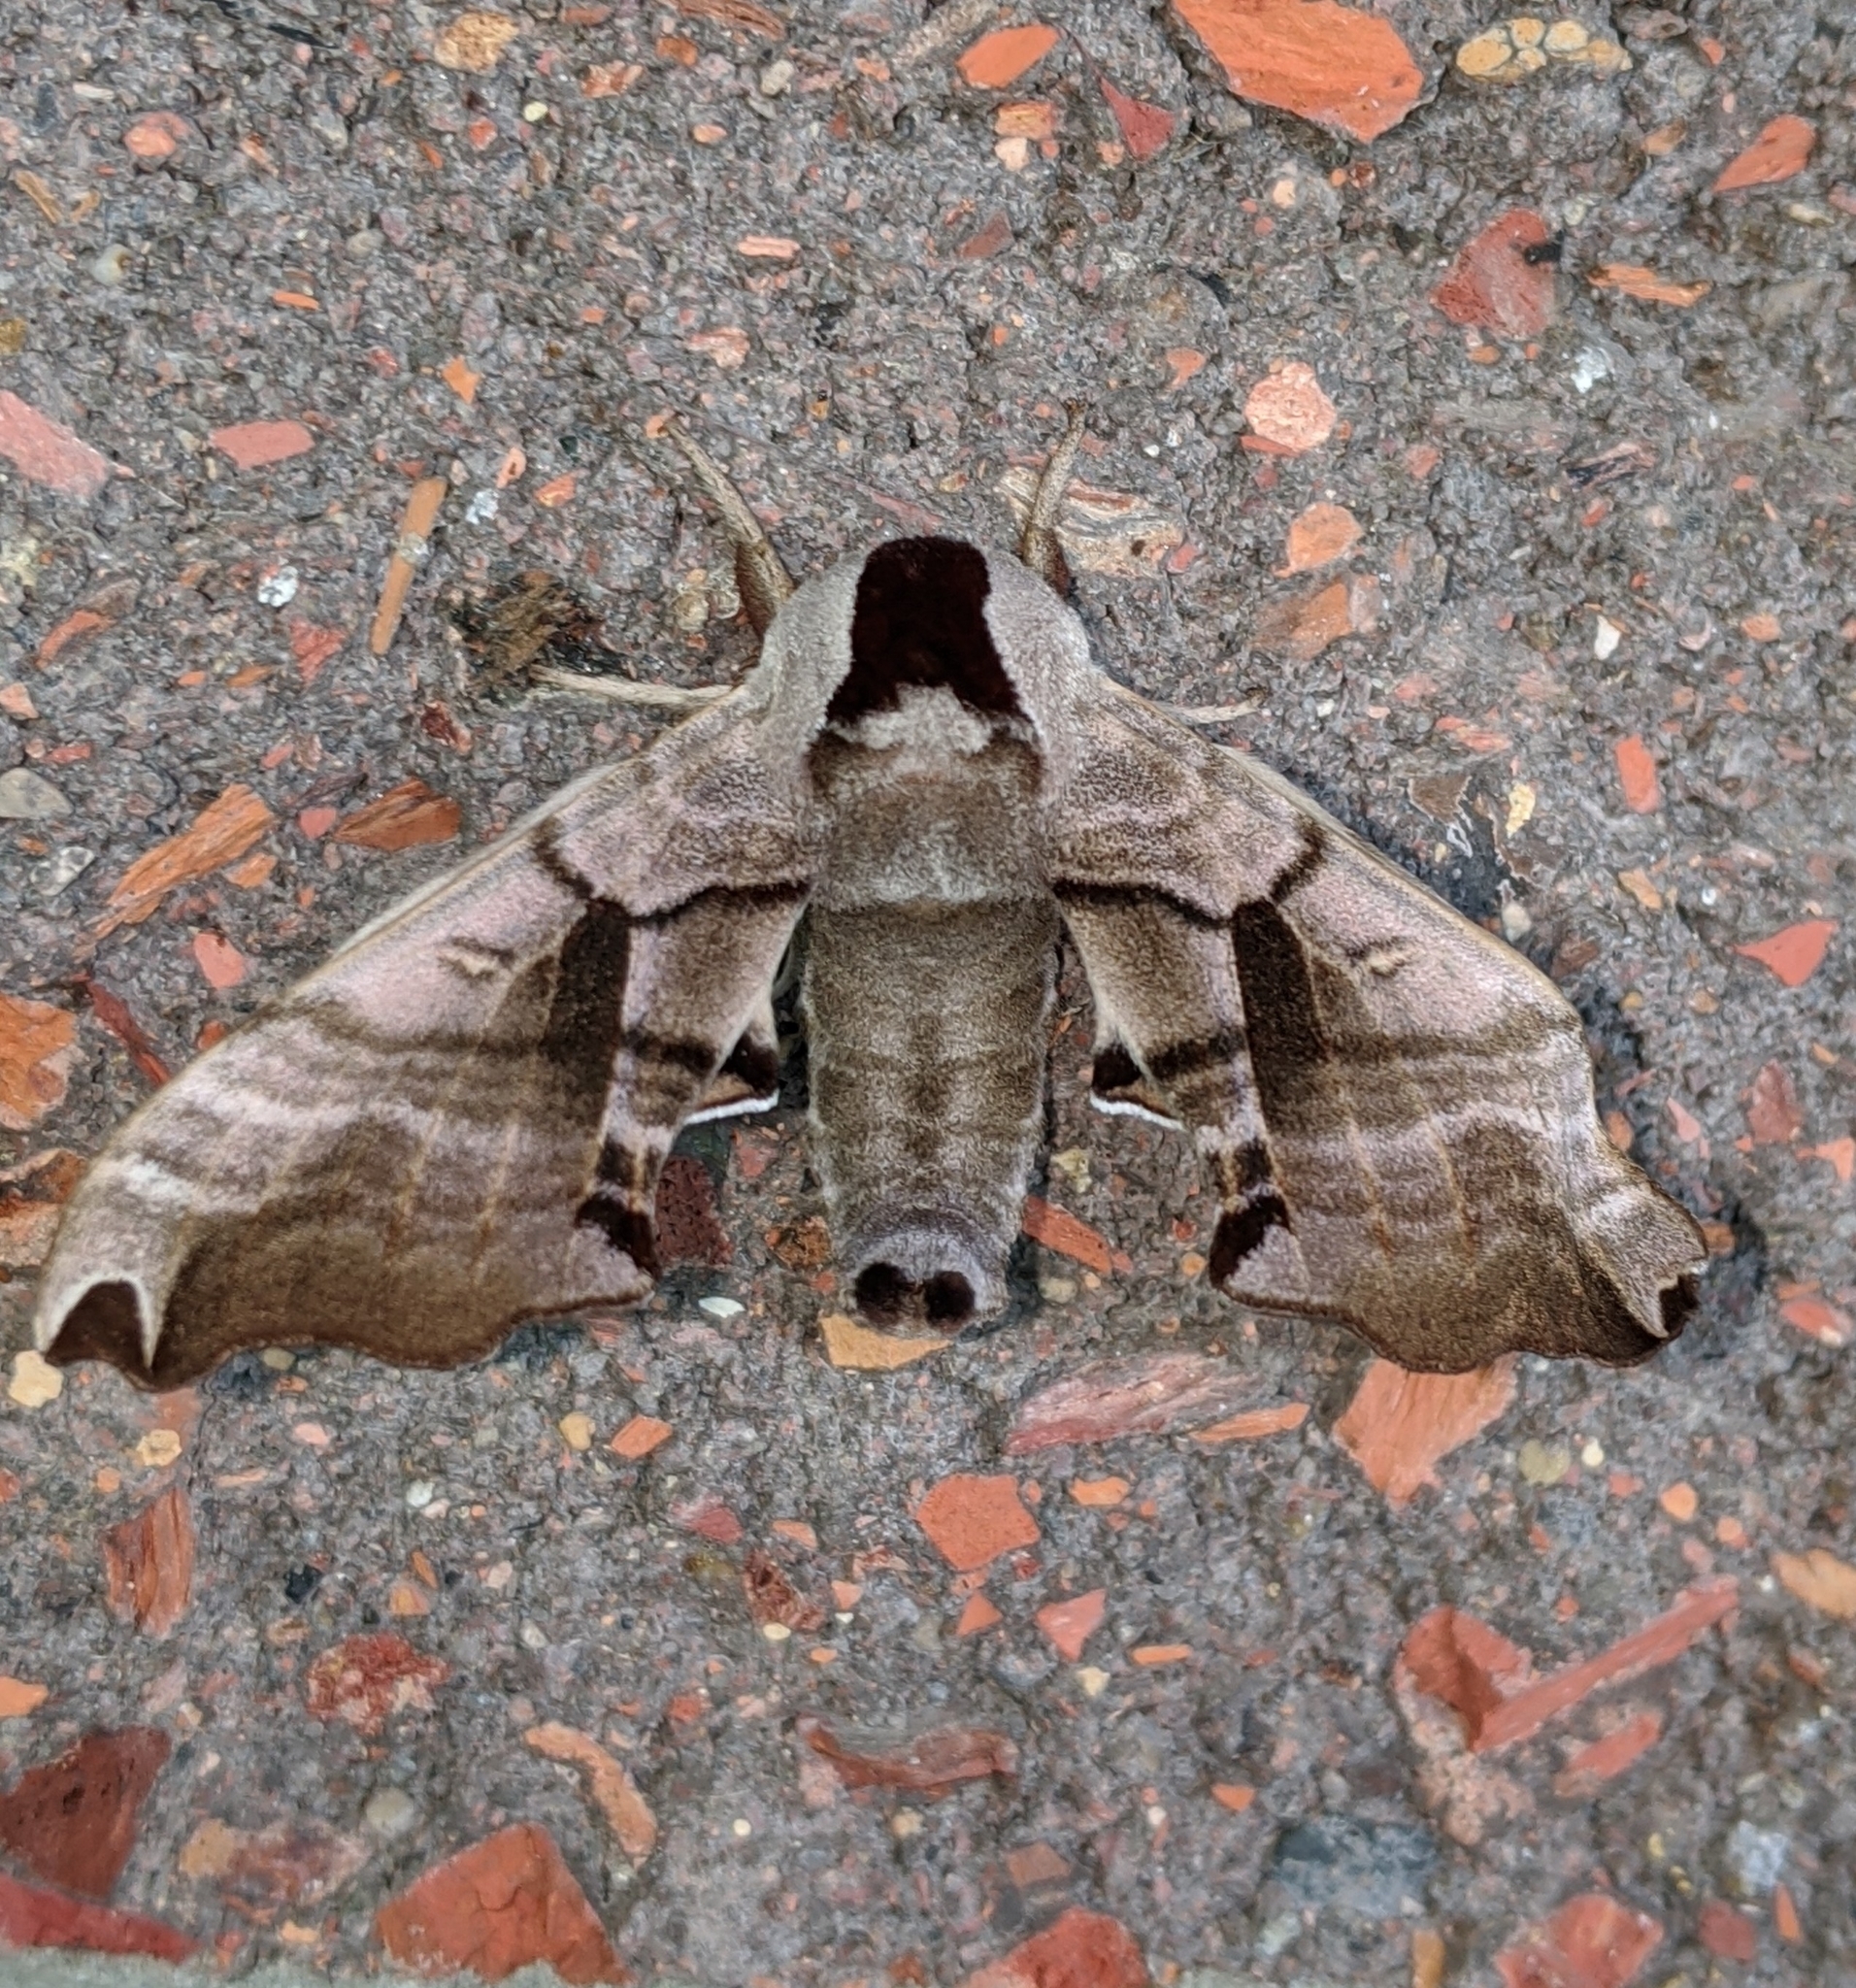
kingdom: Animalia
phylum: Arthropoda
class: Insecta
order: Lepidoptera
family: Sphingidae
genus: Smerinthus
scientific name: Smerinthus jamaicensis
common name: Twin spotted sphinx
